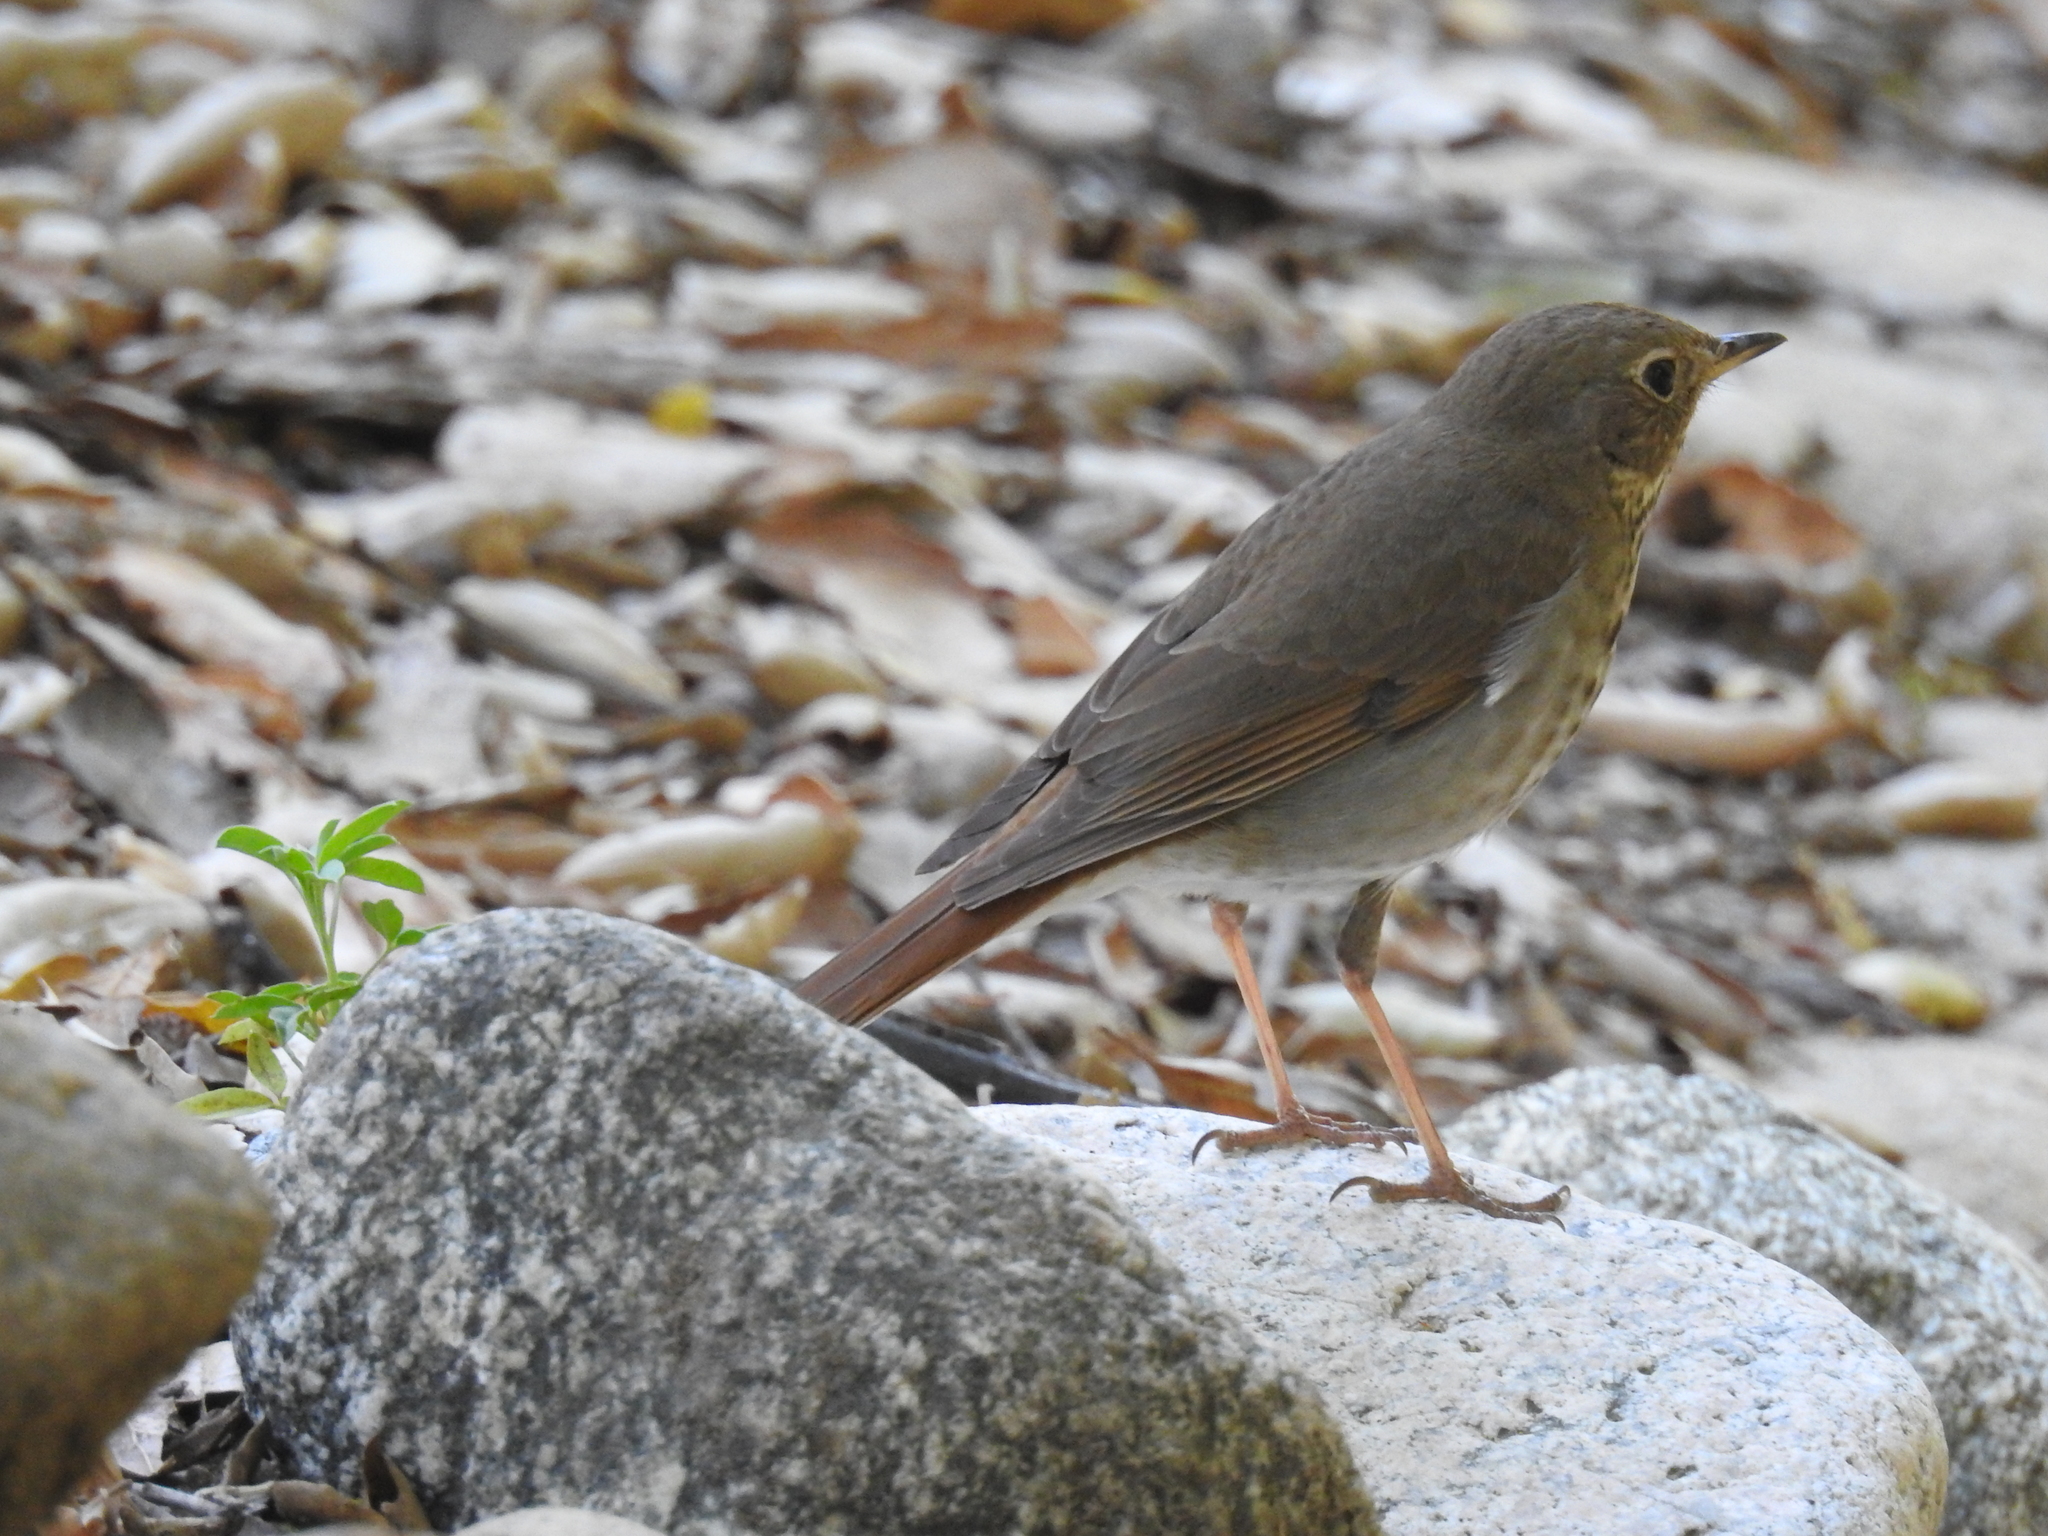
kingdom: Animalia
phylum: Chordata
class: Aves
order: Passeriformes
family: Turdidae
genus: Catharus
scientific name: Catharus guttatus
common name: Hermit thrush
